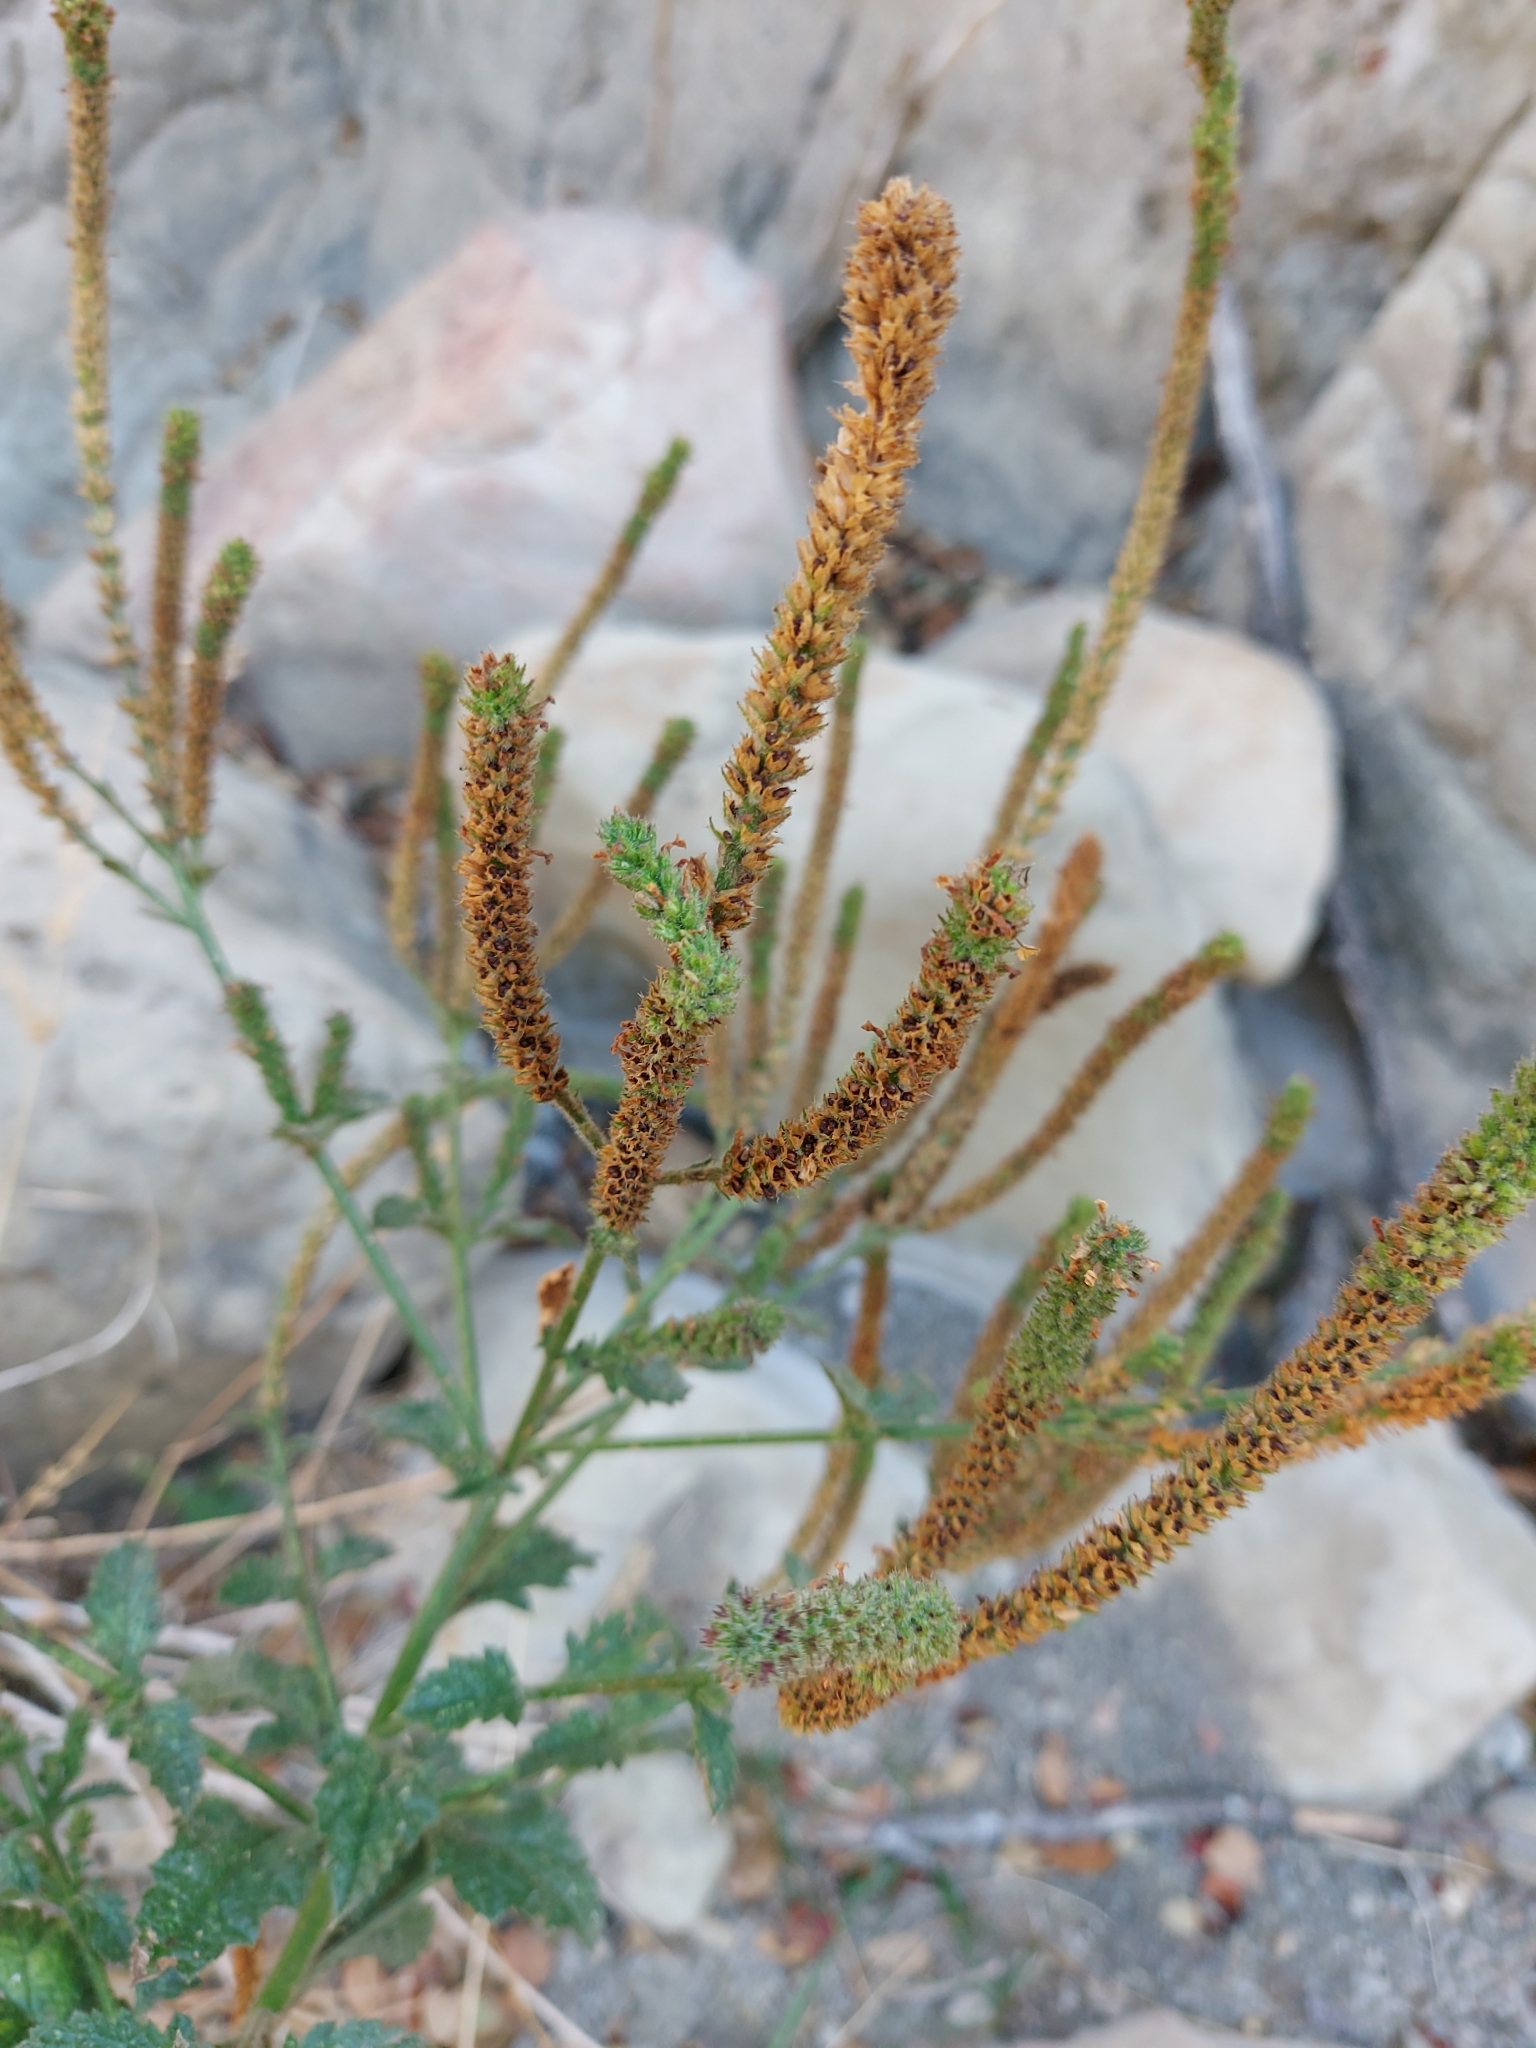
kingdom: Plantae
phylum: Tracheophyta
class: Magnoliopsida
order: Lamiales
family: Verbenaceae
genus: Verbena
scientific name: Verbena lasiostachys
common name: Vervain
